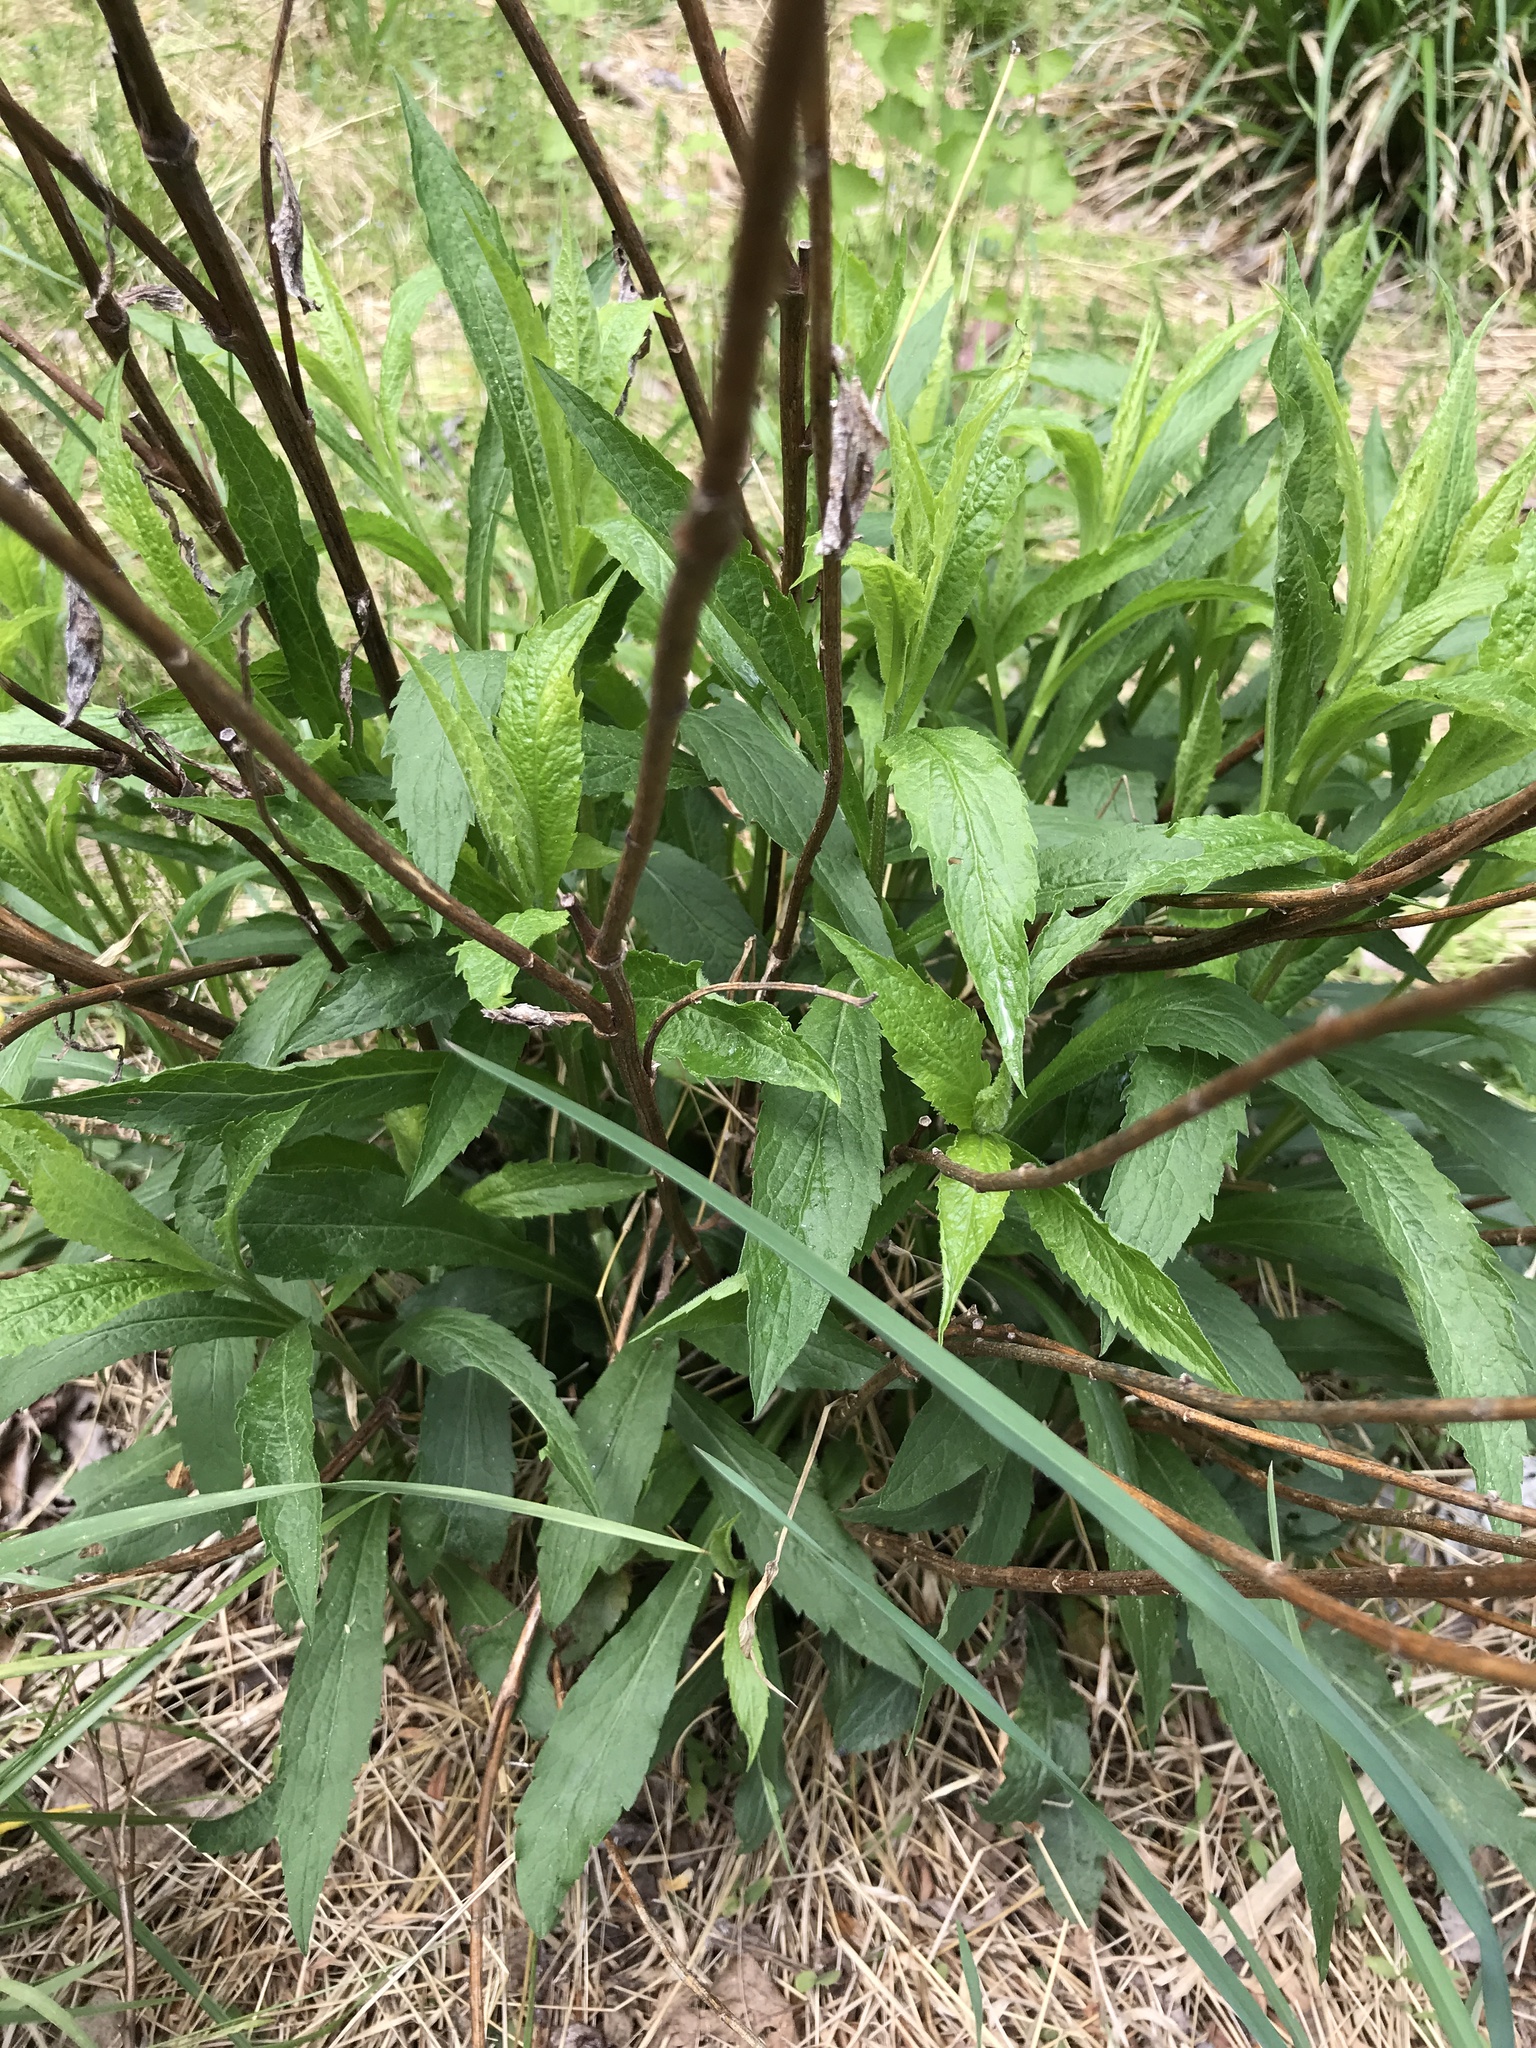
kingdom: Plantae
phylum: Tracheophyta
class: Magnoliopsida
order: Asterales
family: Asteraceae
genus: Solidago
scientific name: Solidago rugosa
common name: Rough-stemmed goldenrod
